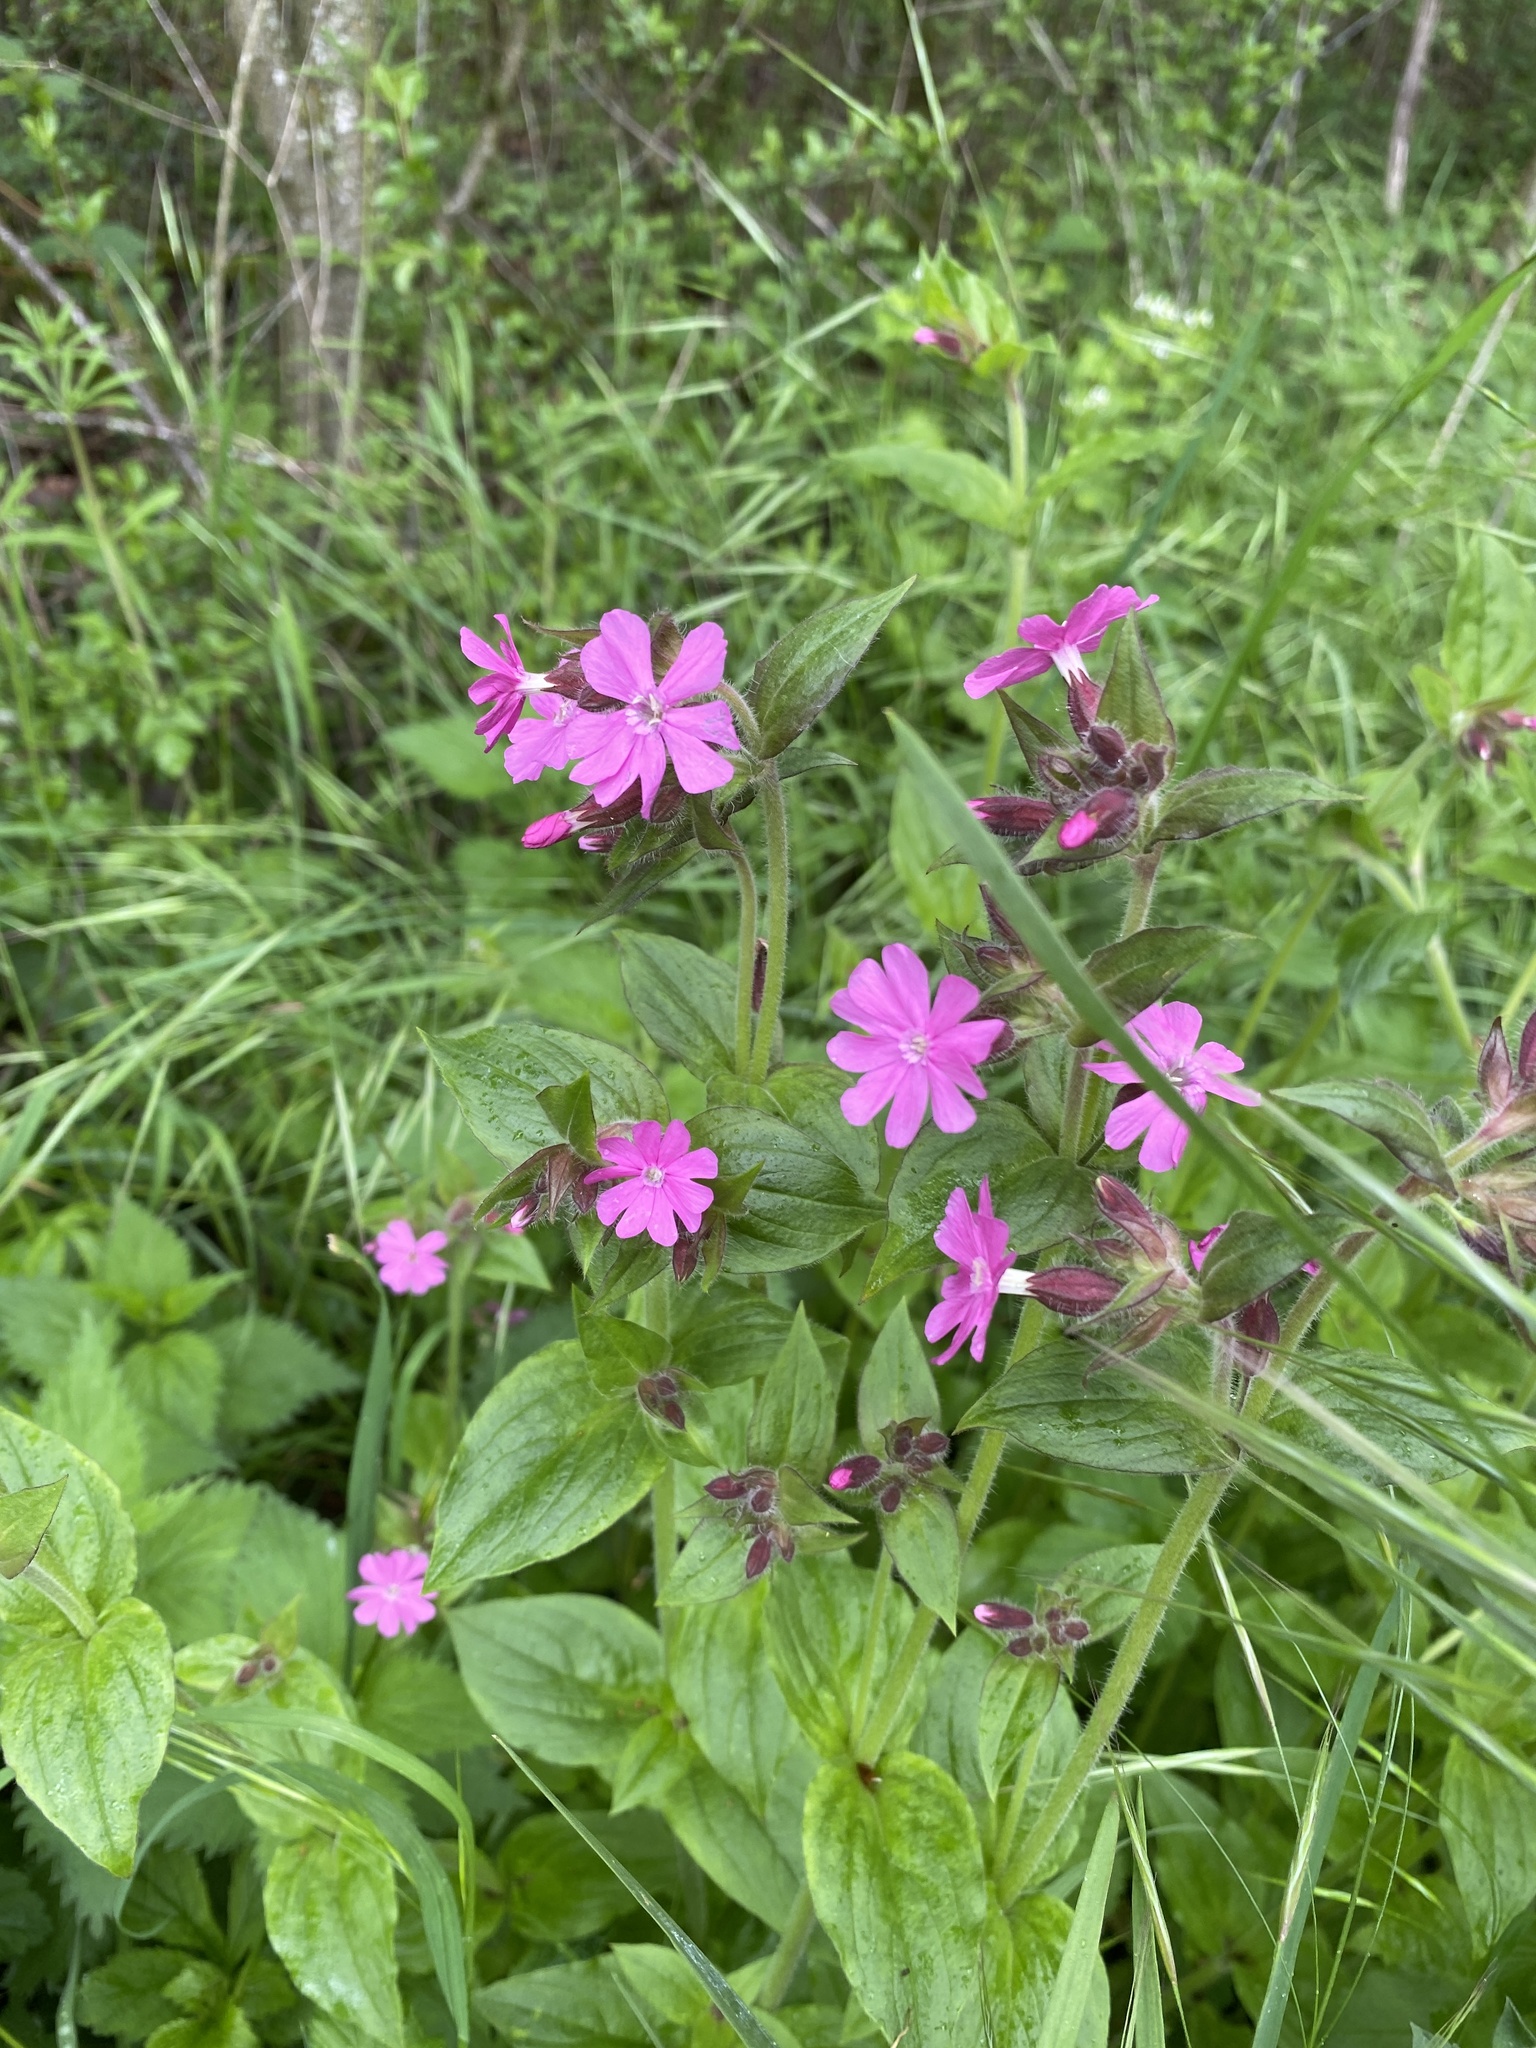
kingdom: Plantae
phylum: Tracheophyta
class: Magnoliopsida
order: Caryophyllales
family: Caryophyllaceae
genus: Silene
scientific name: Silene dioica
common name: Red campion
